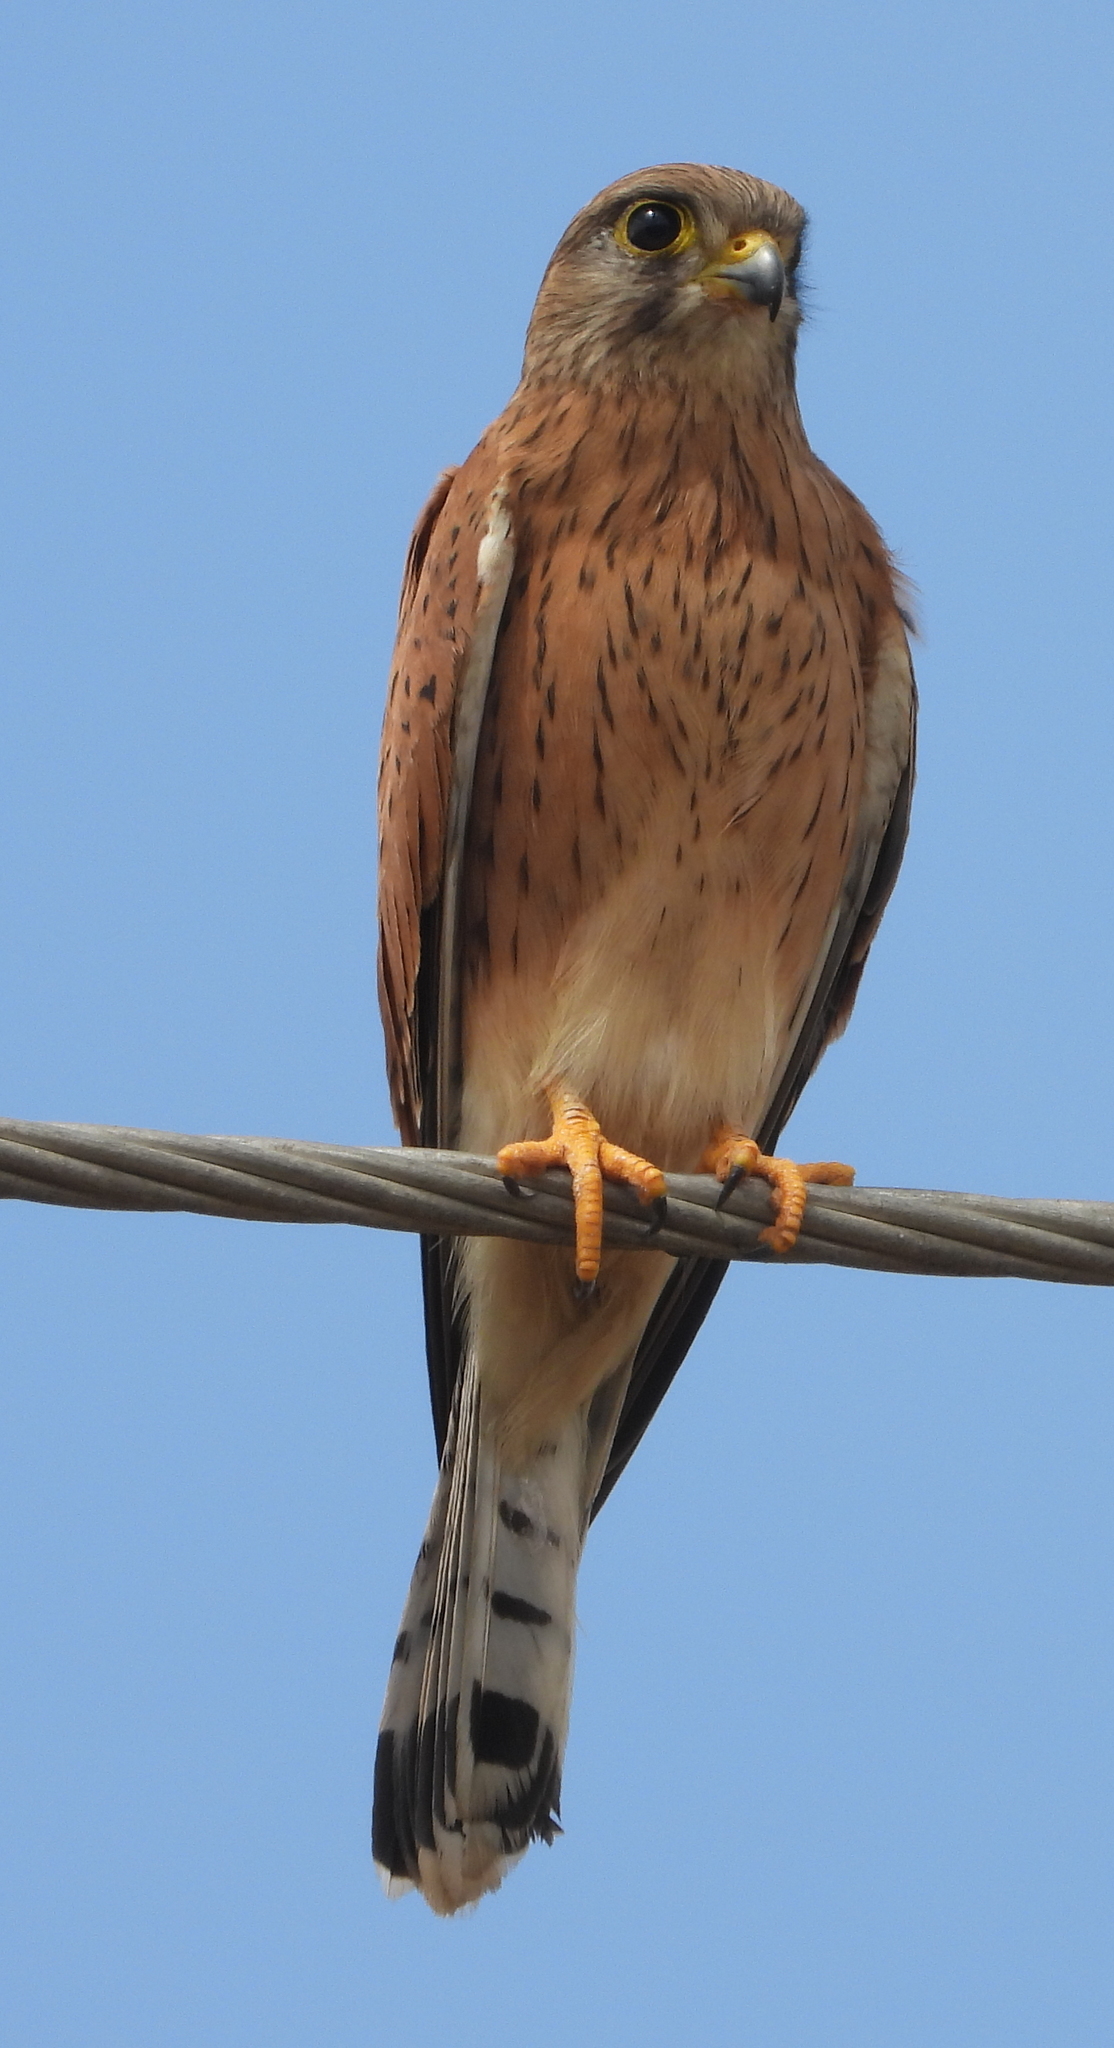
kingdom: Animalia
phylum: Chordata
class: Aves
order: Falconiformes
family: Falconidae
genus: Falco
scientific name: Falco rupicolus
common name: Rock kestrel
